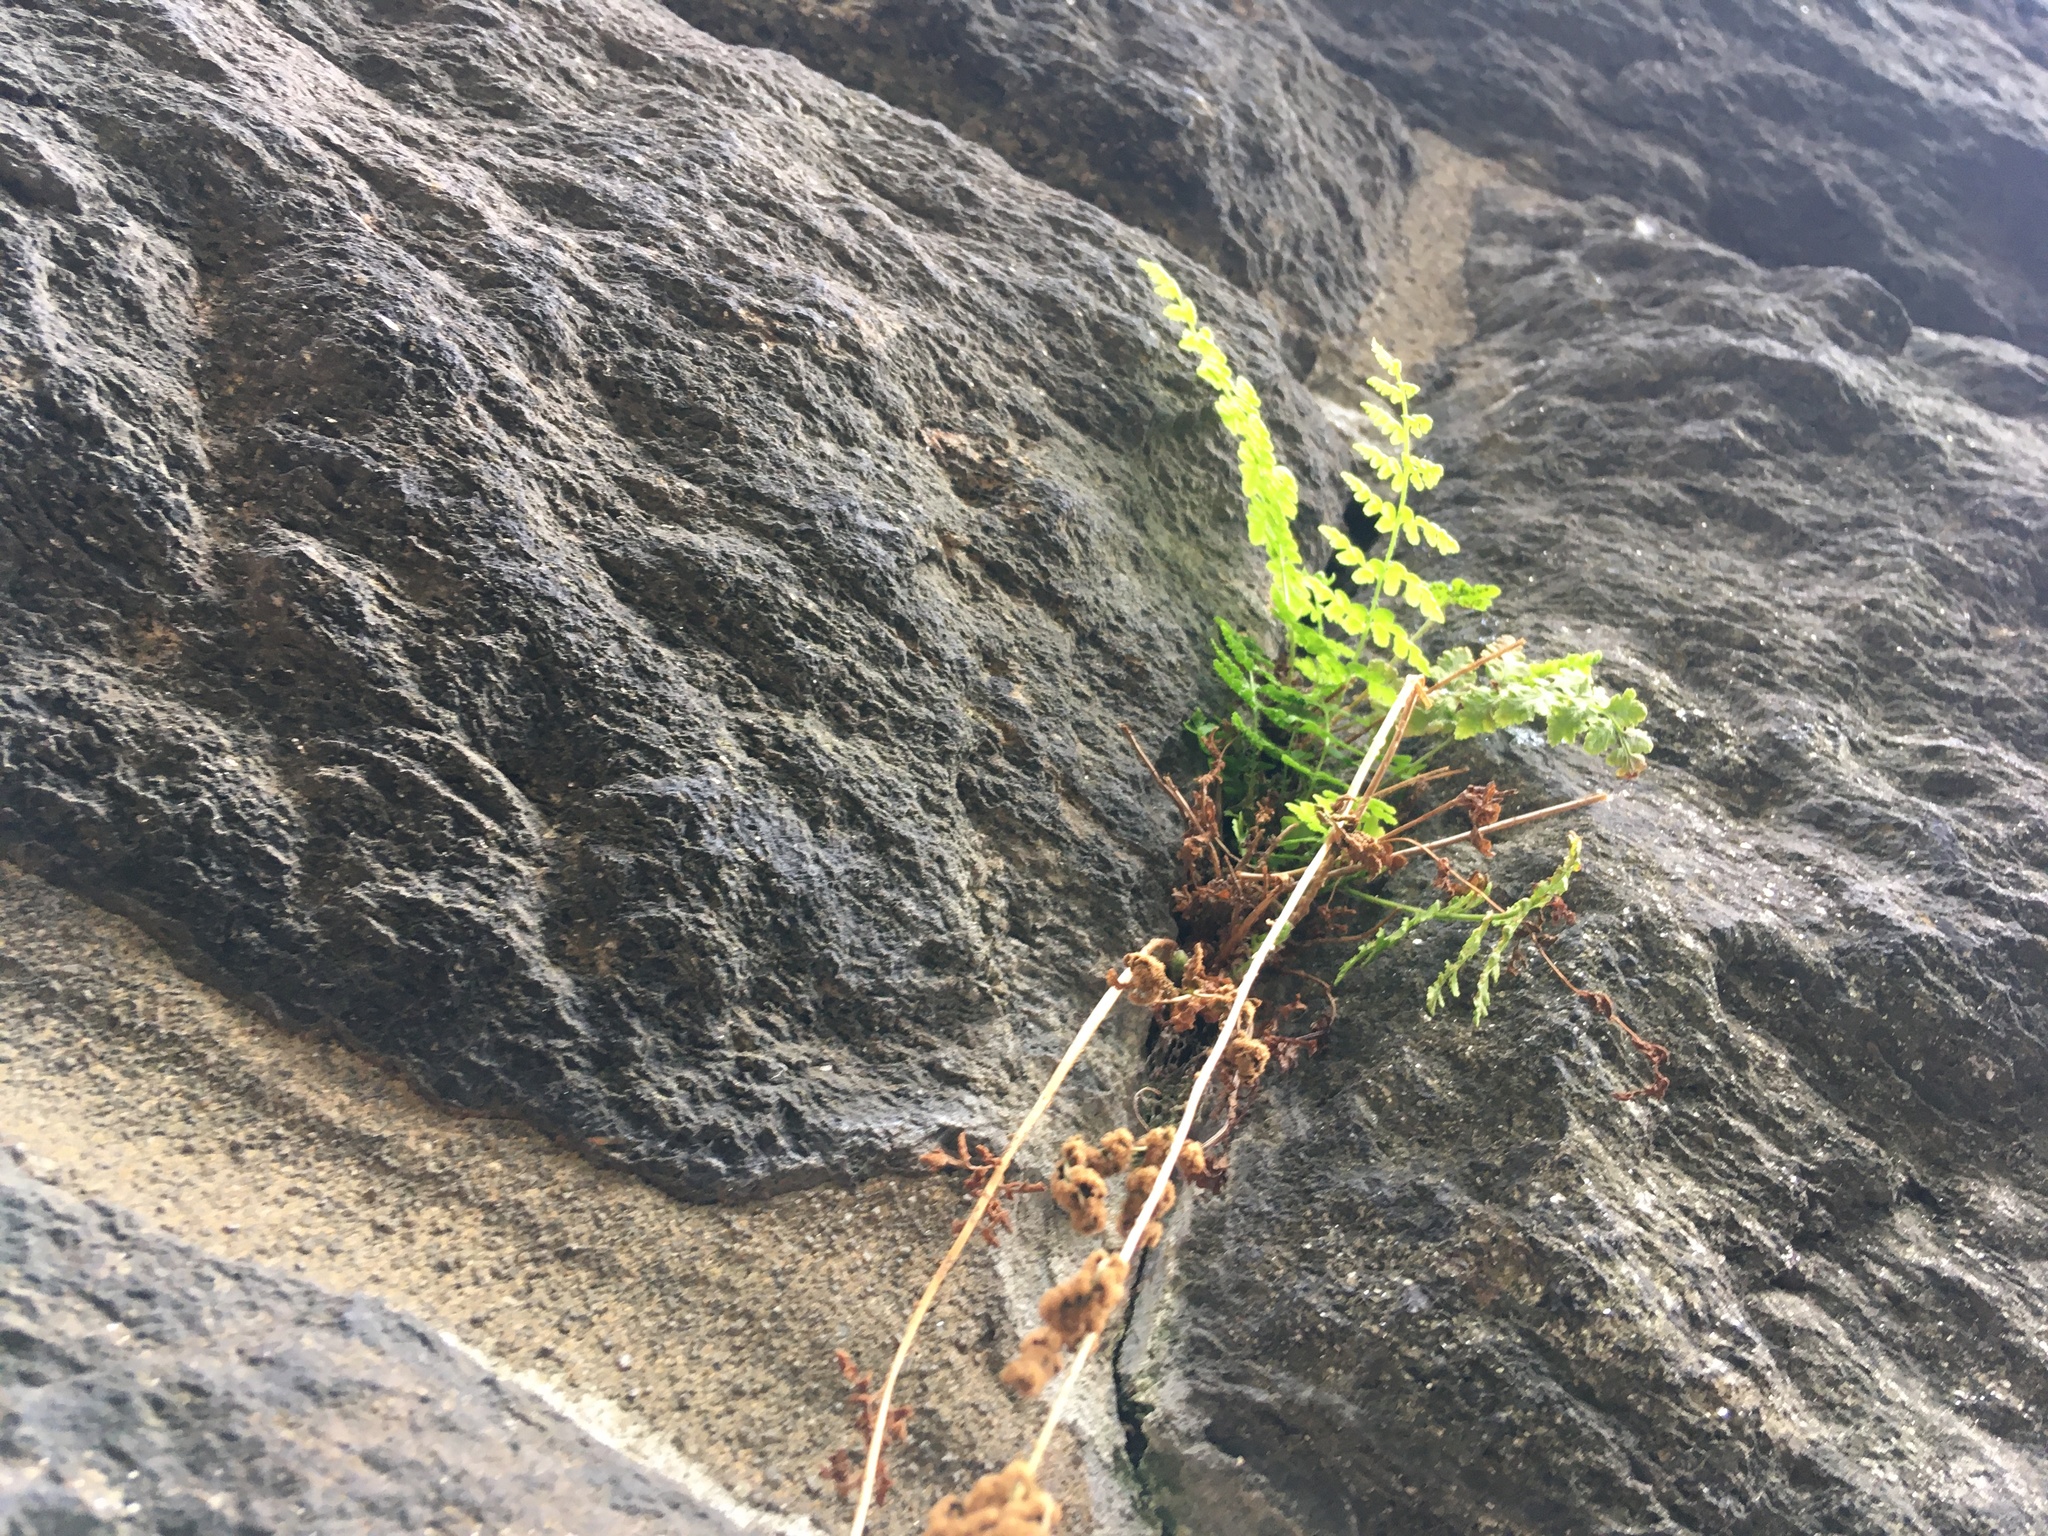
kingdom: Plantae
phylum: Tracheophyta
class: Polypodiopsida
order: Polypodiales
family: Woodsiaceae
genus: Physematium
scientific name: Physematium obtusum
